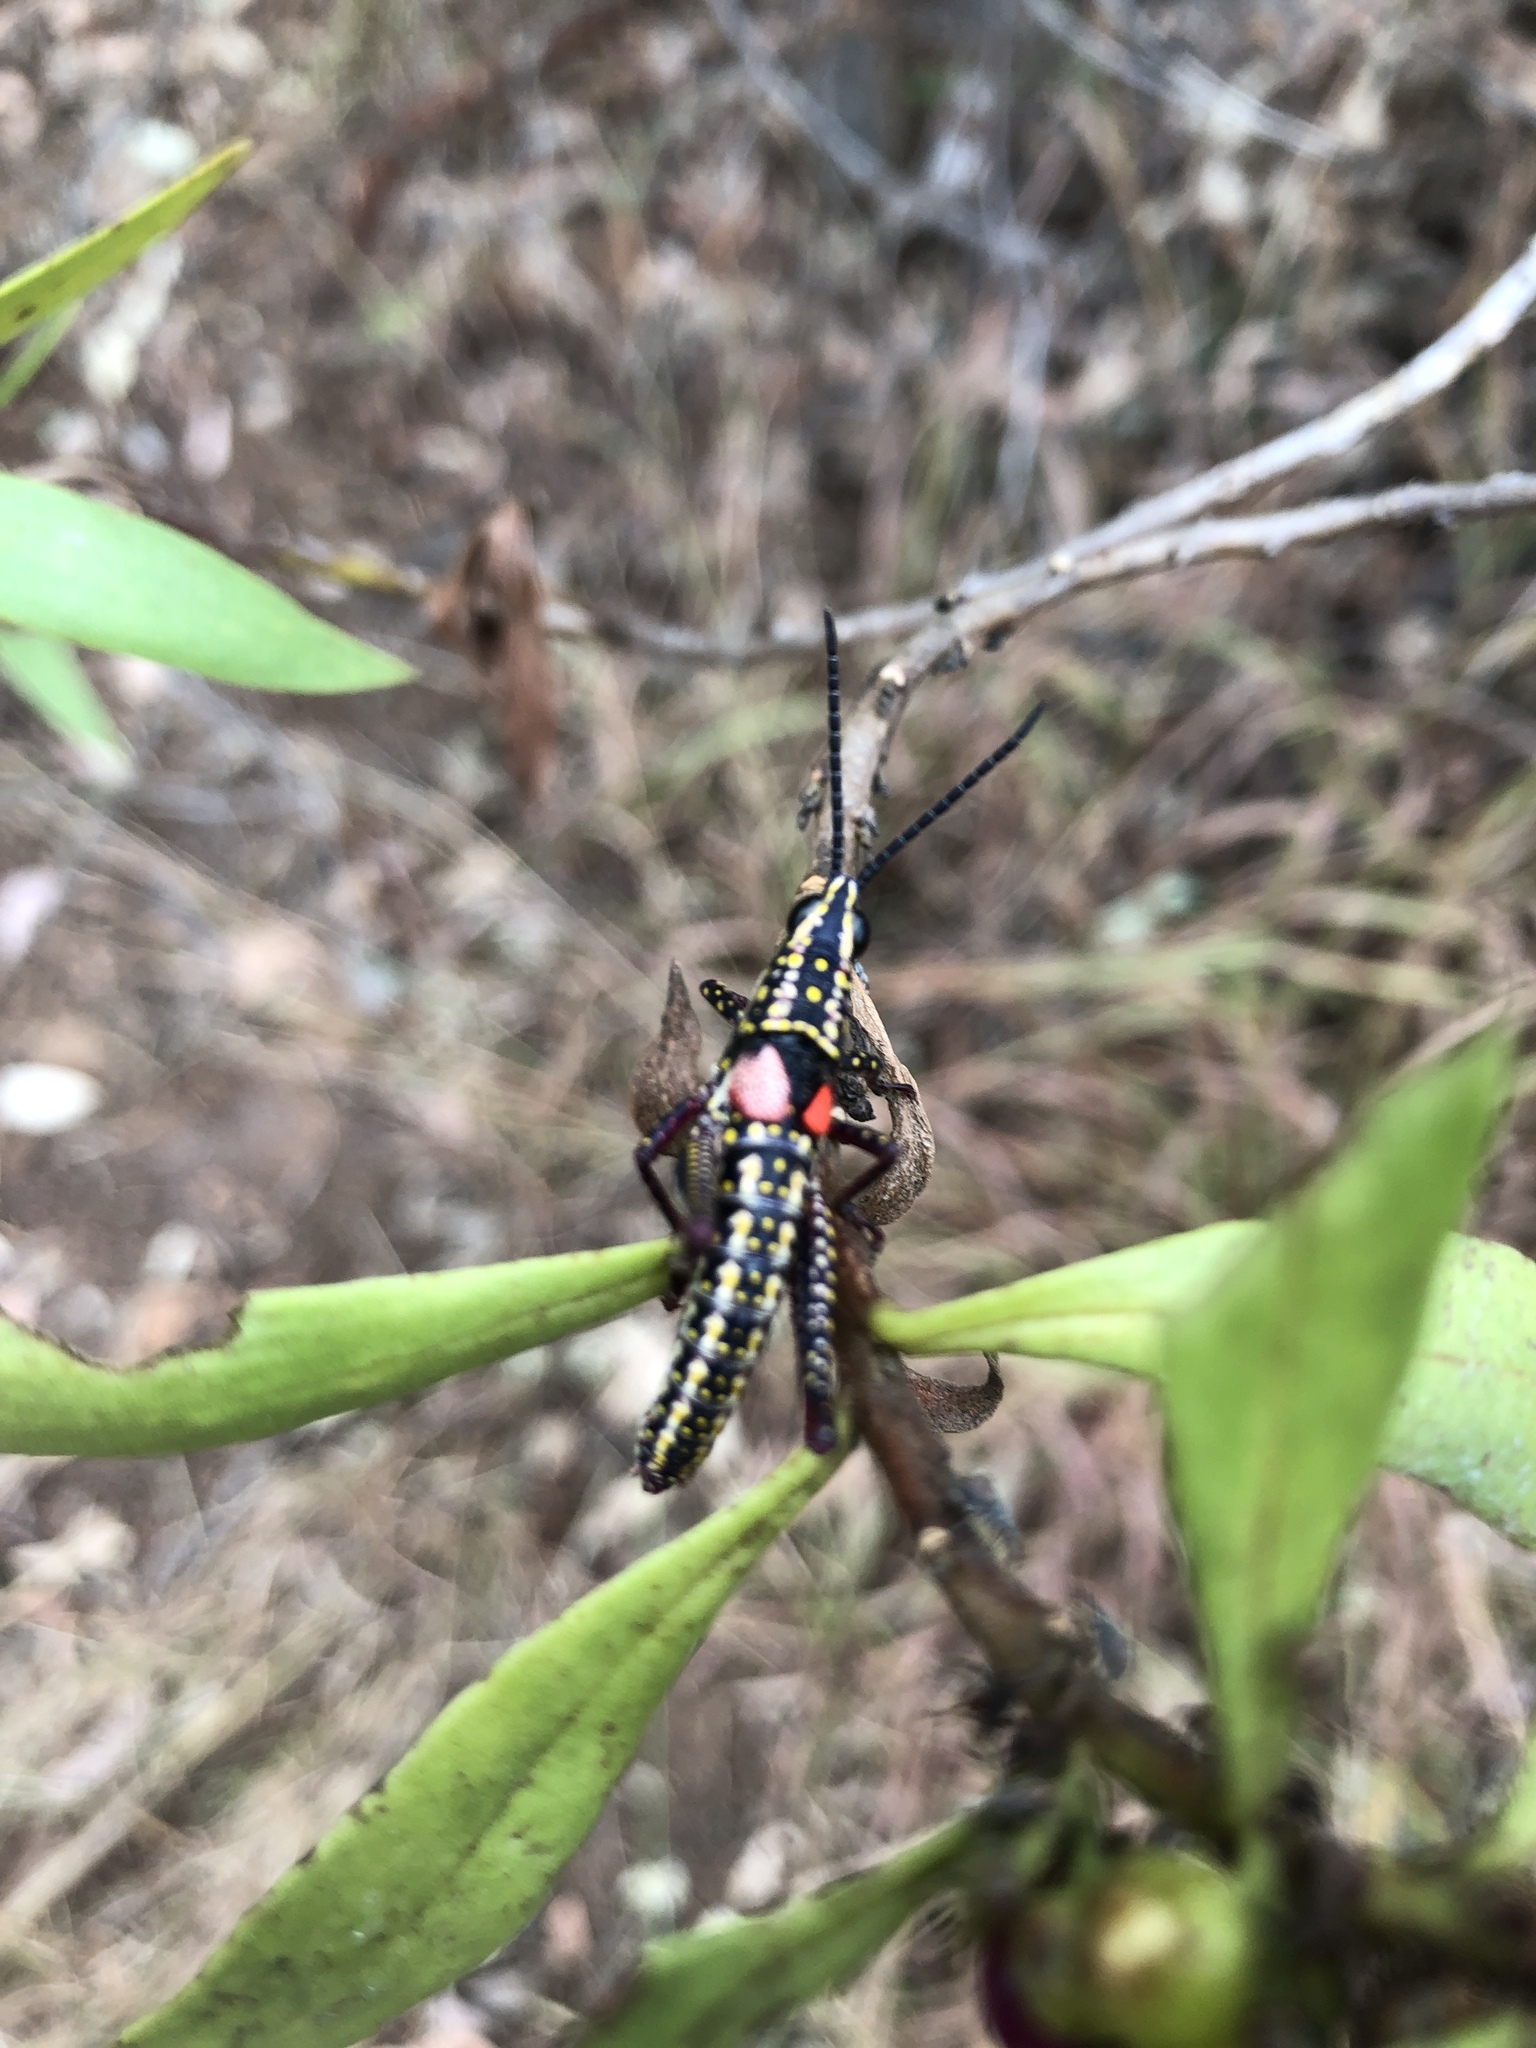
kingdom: Animalia
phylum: Arthropoda
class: Insecta
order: Orthoptera
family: Pyrgomorphidae
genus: Greyacris
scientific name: Greyacris profundesulcata
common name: Queensland spotted pyrgomorph
